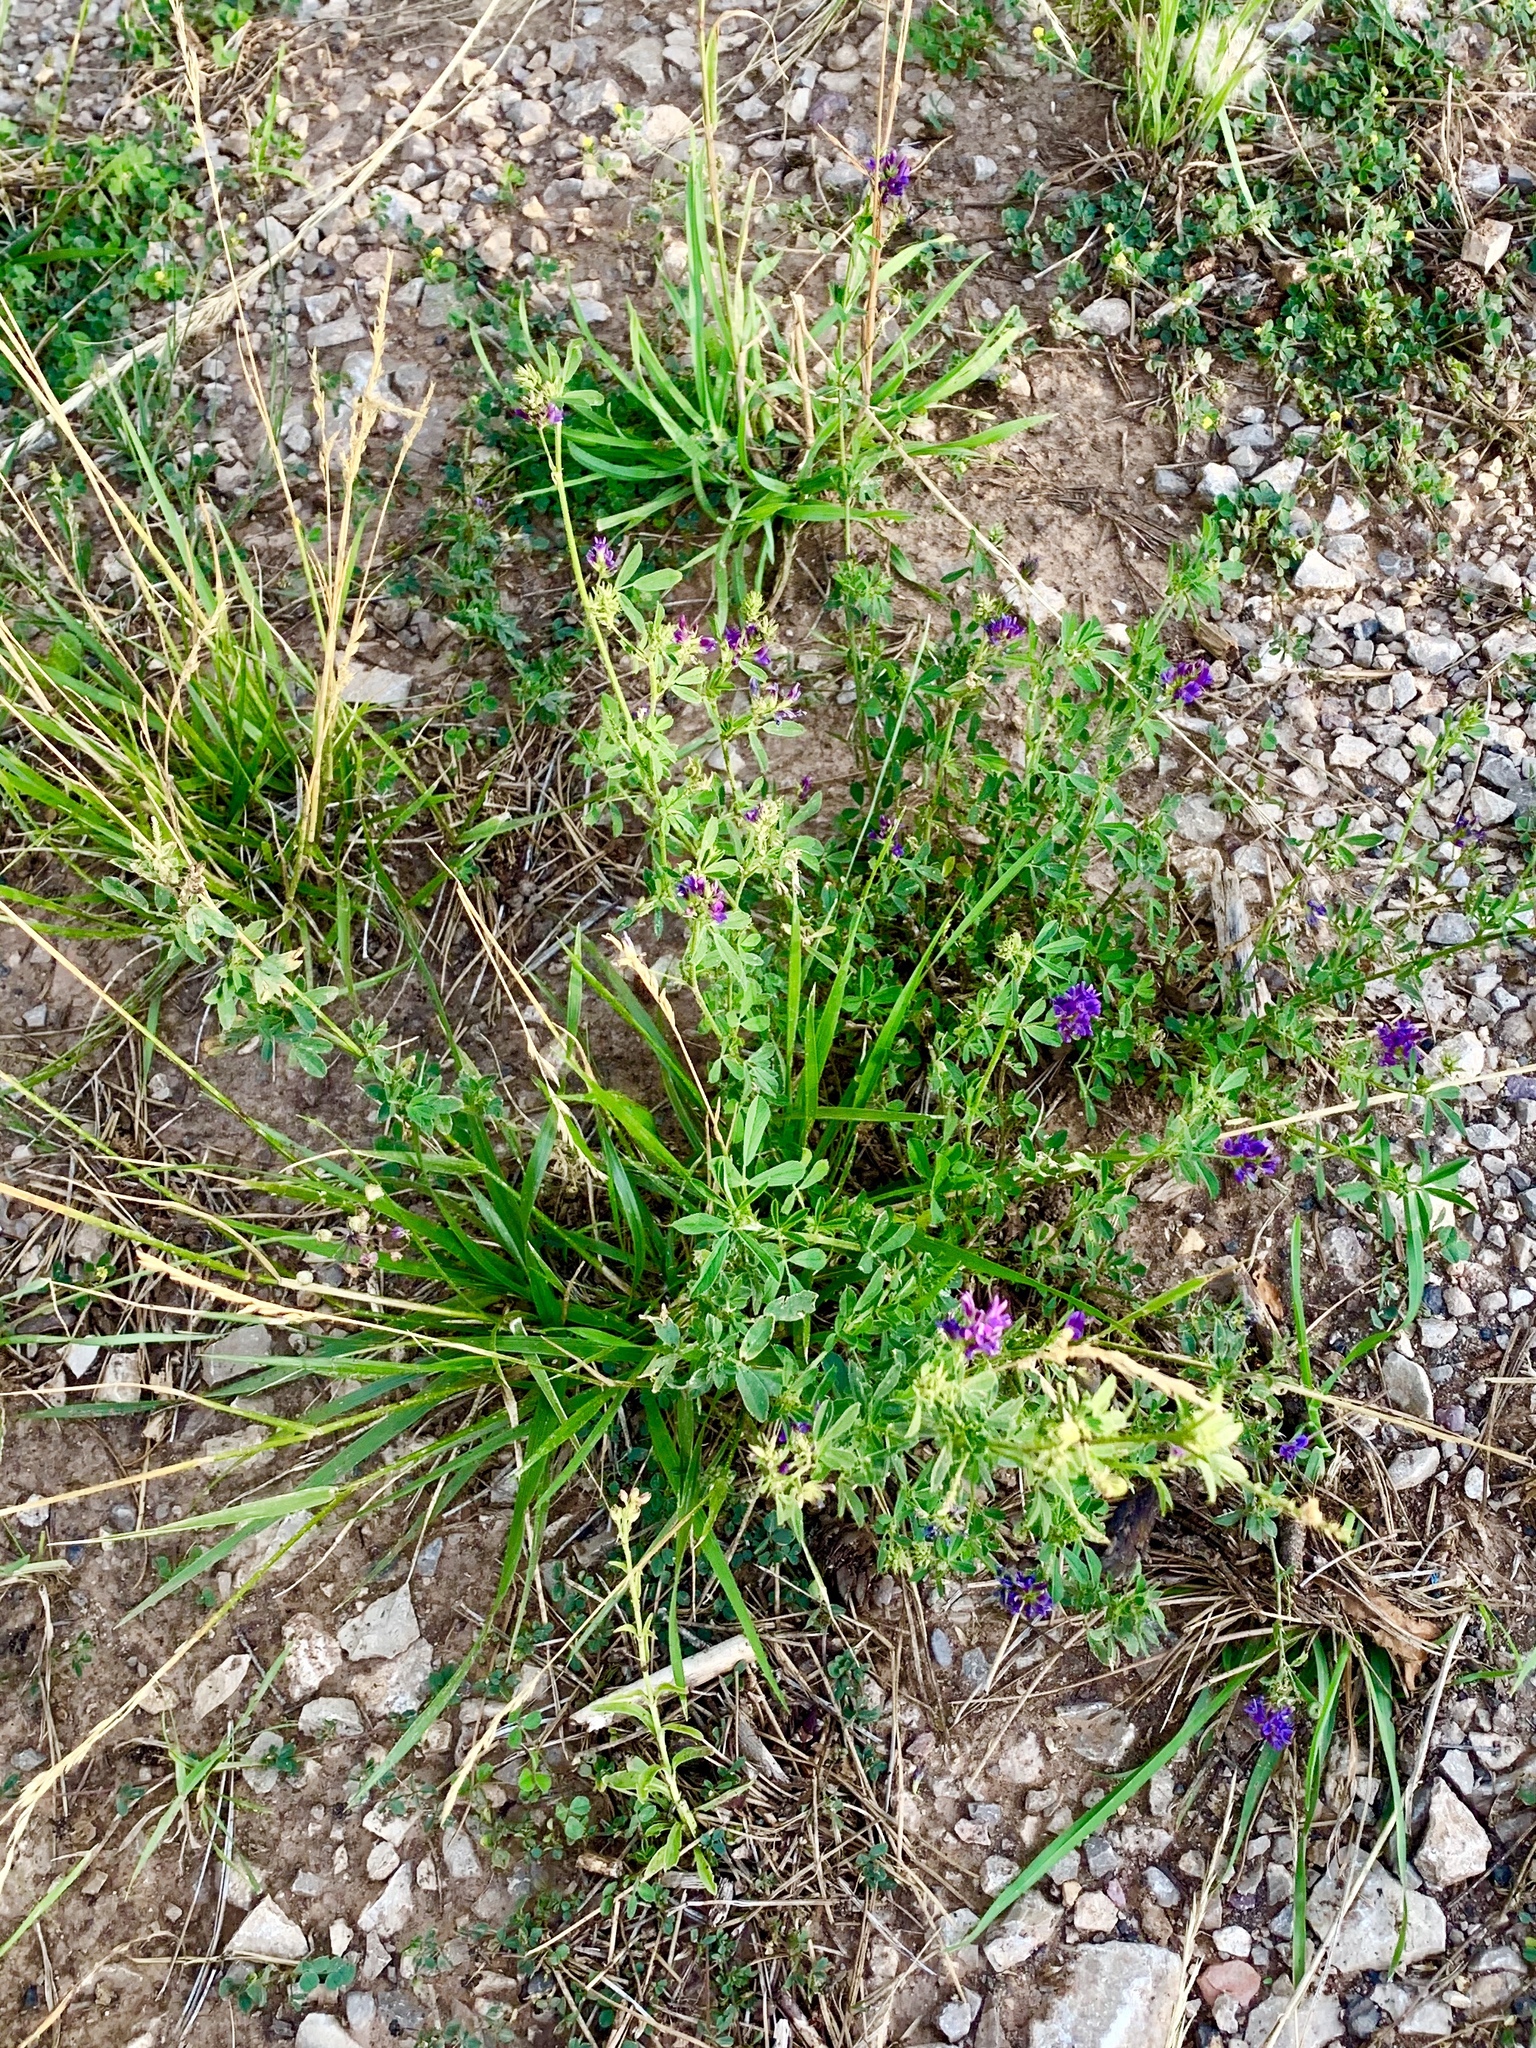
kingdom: Plantae
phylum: Tracheophyta
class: Magnoliopsida
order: Fabales
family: Fabaceae
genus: Medicago
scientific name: Medicago sativa
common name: Alfalfa
